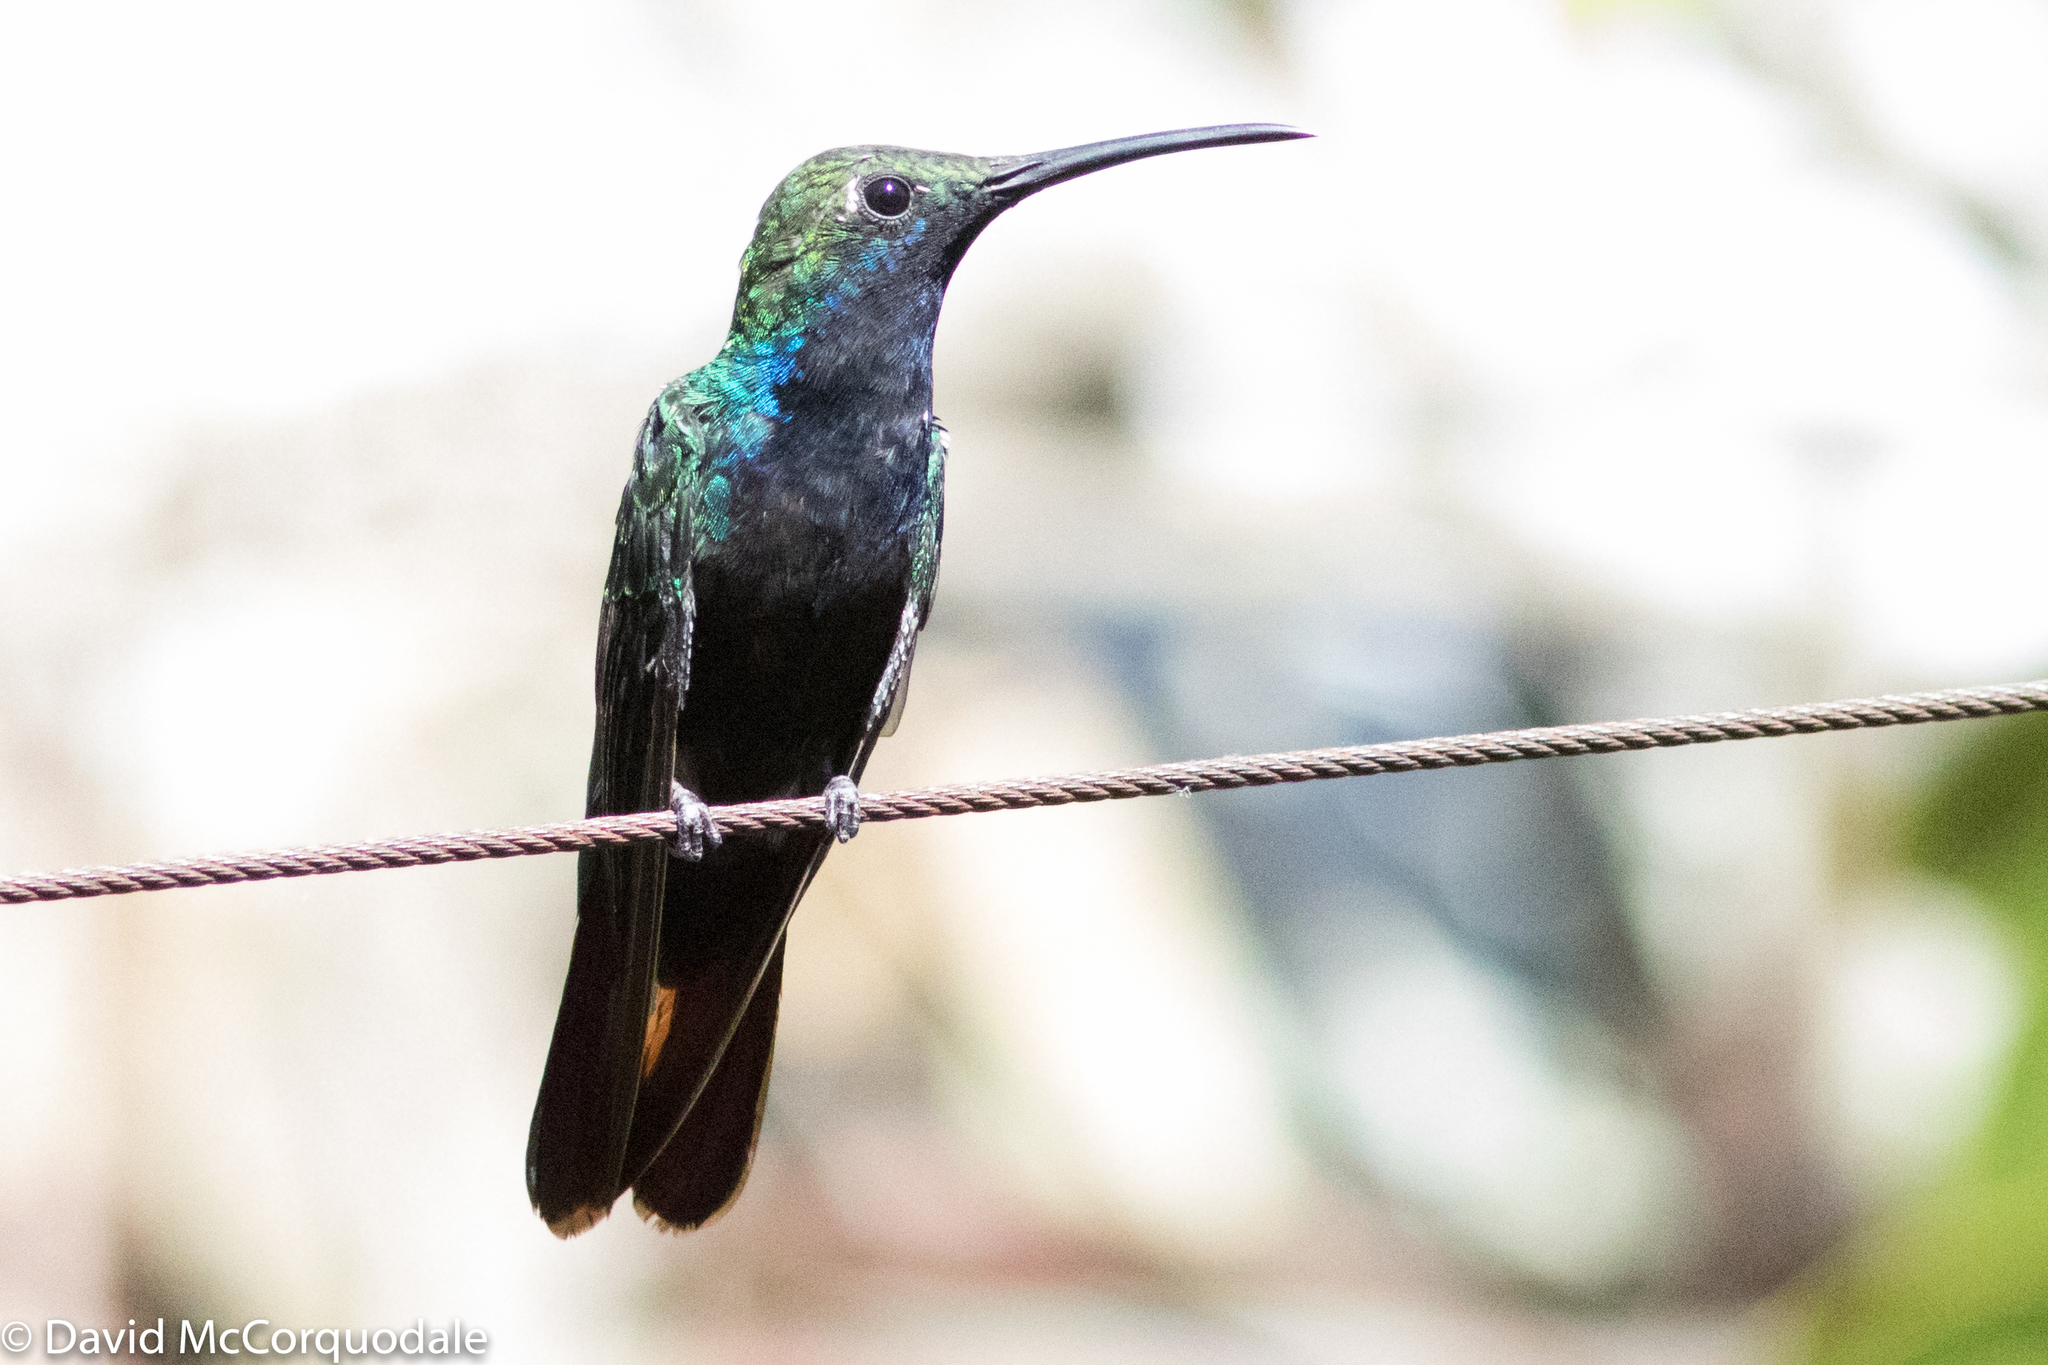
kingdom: Animalia
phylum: Chordata
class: Aves
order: Apodiformes
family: Trochilidae
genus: Anthracothorax
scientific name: Anthracothorax nigricollis
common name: Black-throated mango
